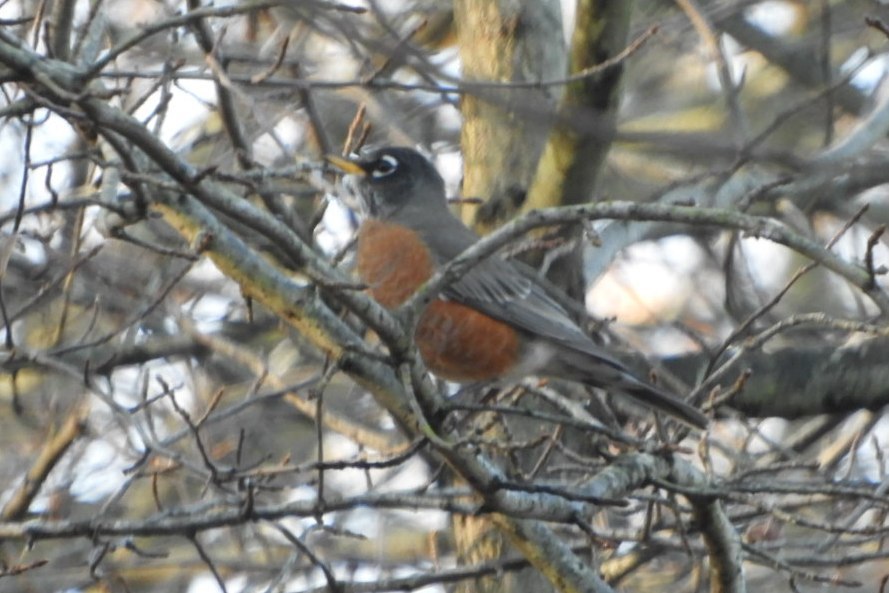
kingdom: Animalia
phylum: Chordata
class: Aves
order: Passeriformes
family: Turdidae
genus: Turdus
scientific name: Turdus migratorius
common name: American robin
